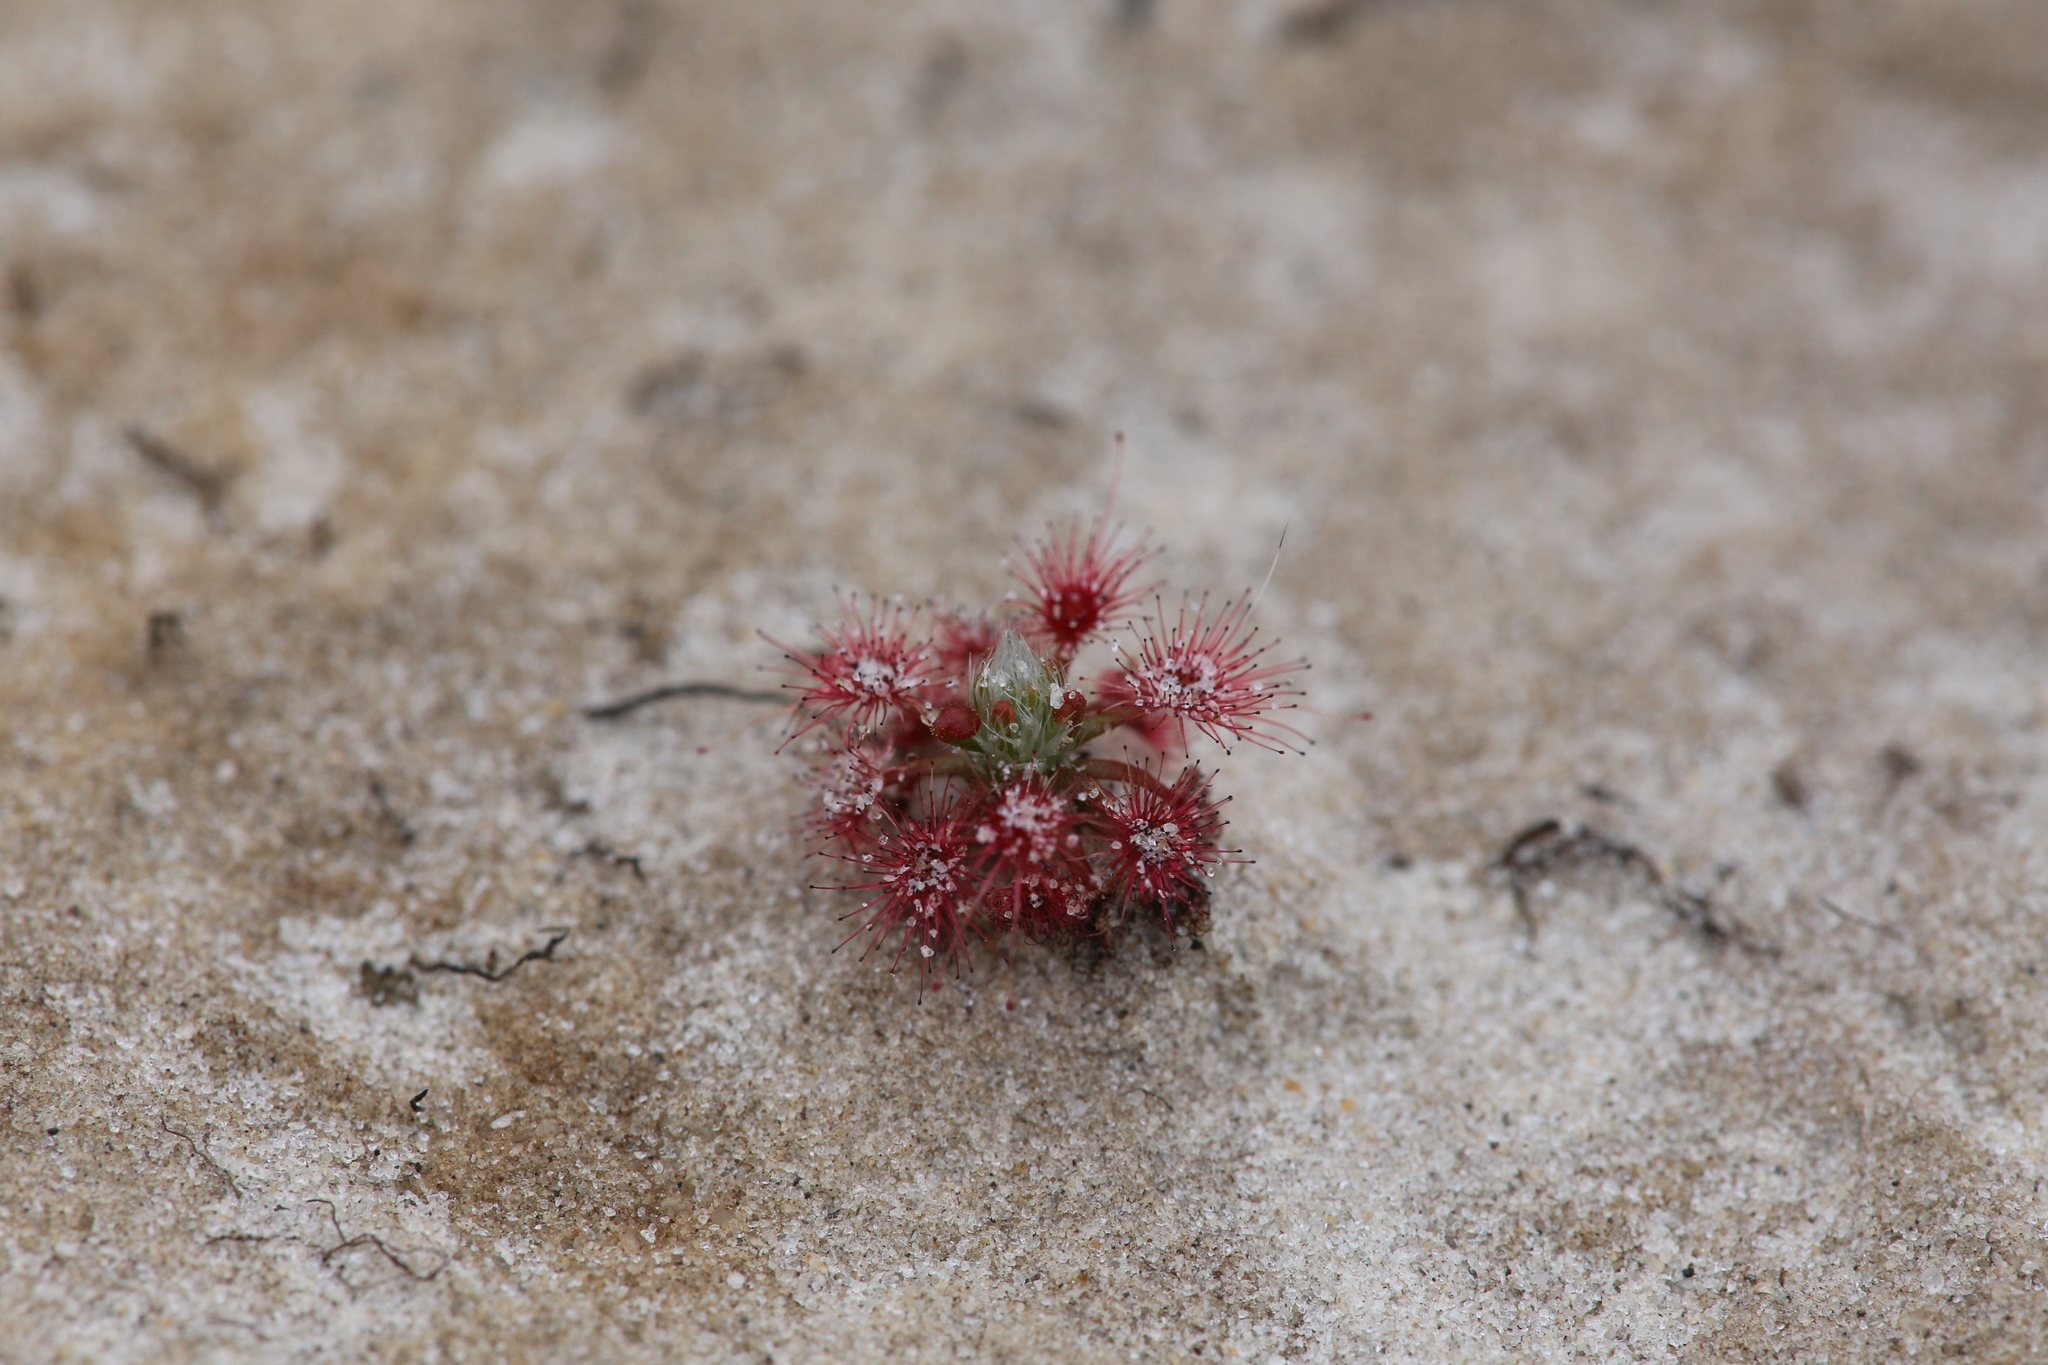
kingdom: Plantae
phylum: Tracheophyta
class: Magnoliopsida
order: Caryophyllales
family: Droseraceae
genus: Drosera
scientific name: Drosera paleacea
